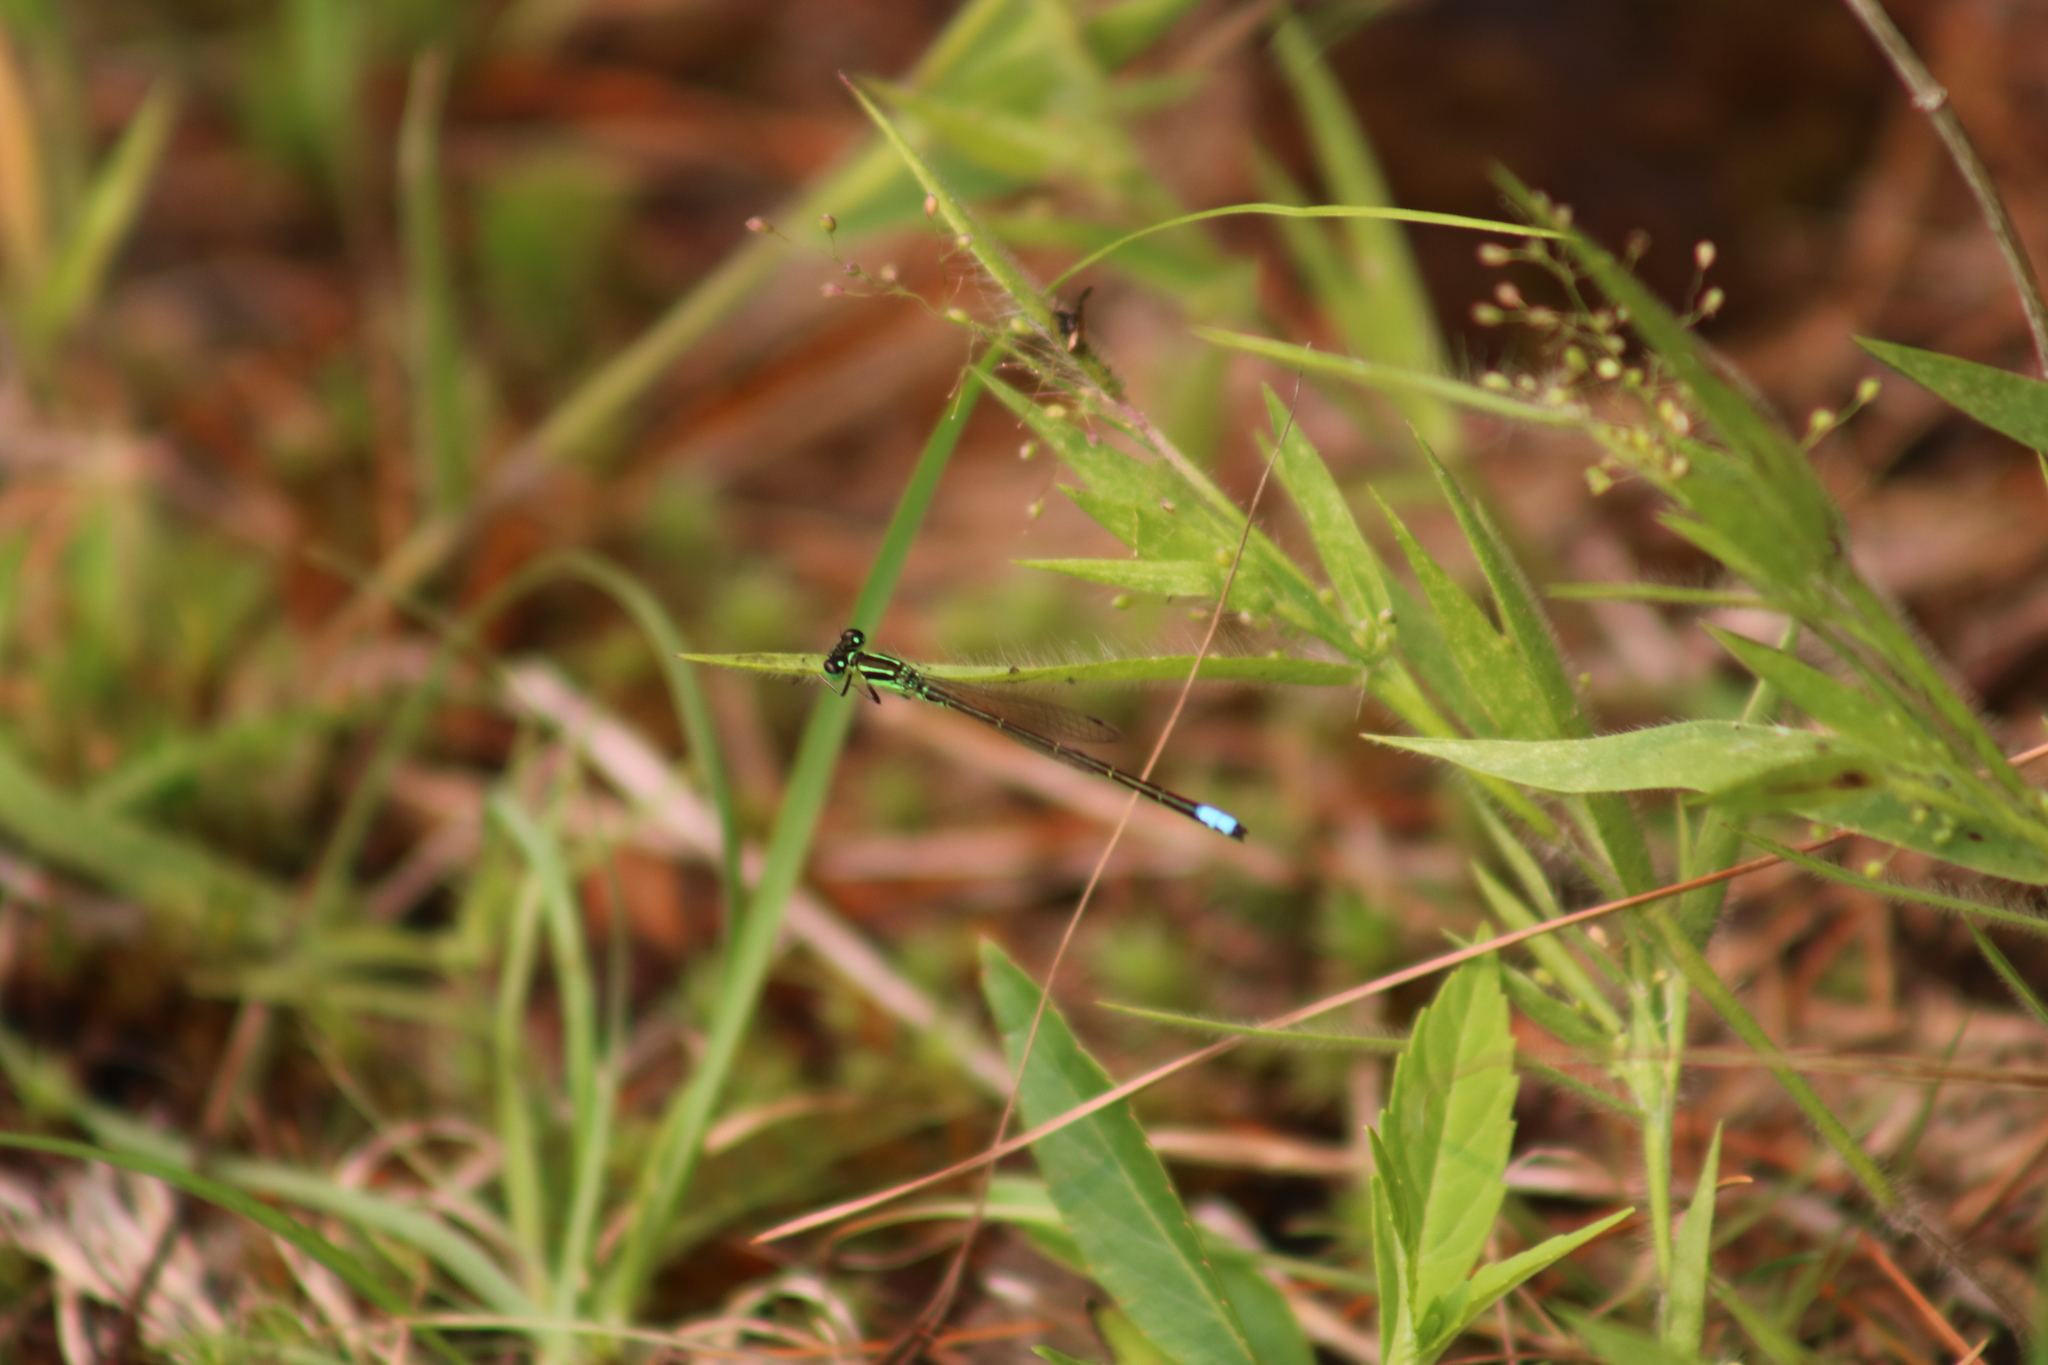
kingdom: Animalia
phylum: Arthropoda
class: Insecta
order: Odonata
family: Coenagrionidae
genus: Ischnura
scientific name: Ischnura verticalis
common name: Eastern forktail
